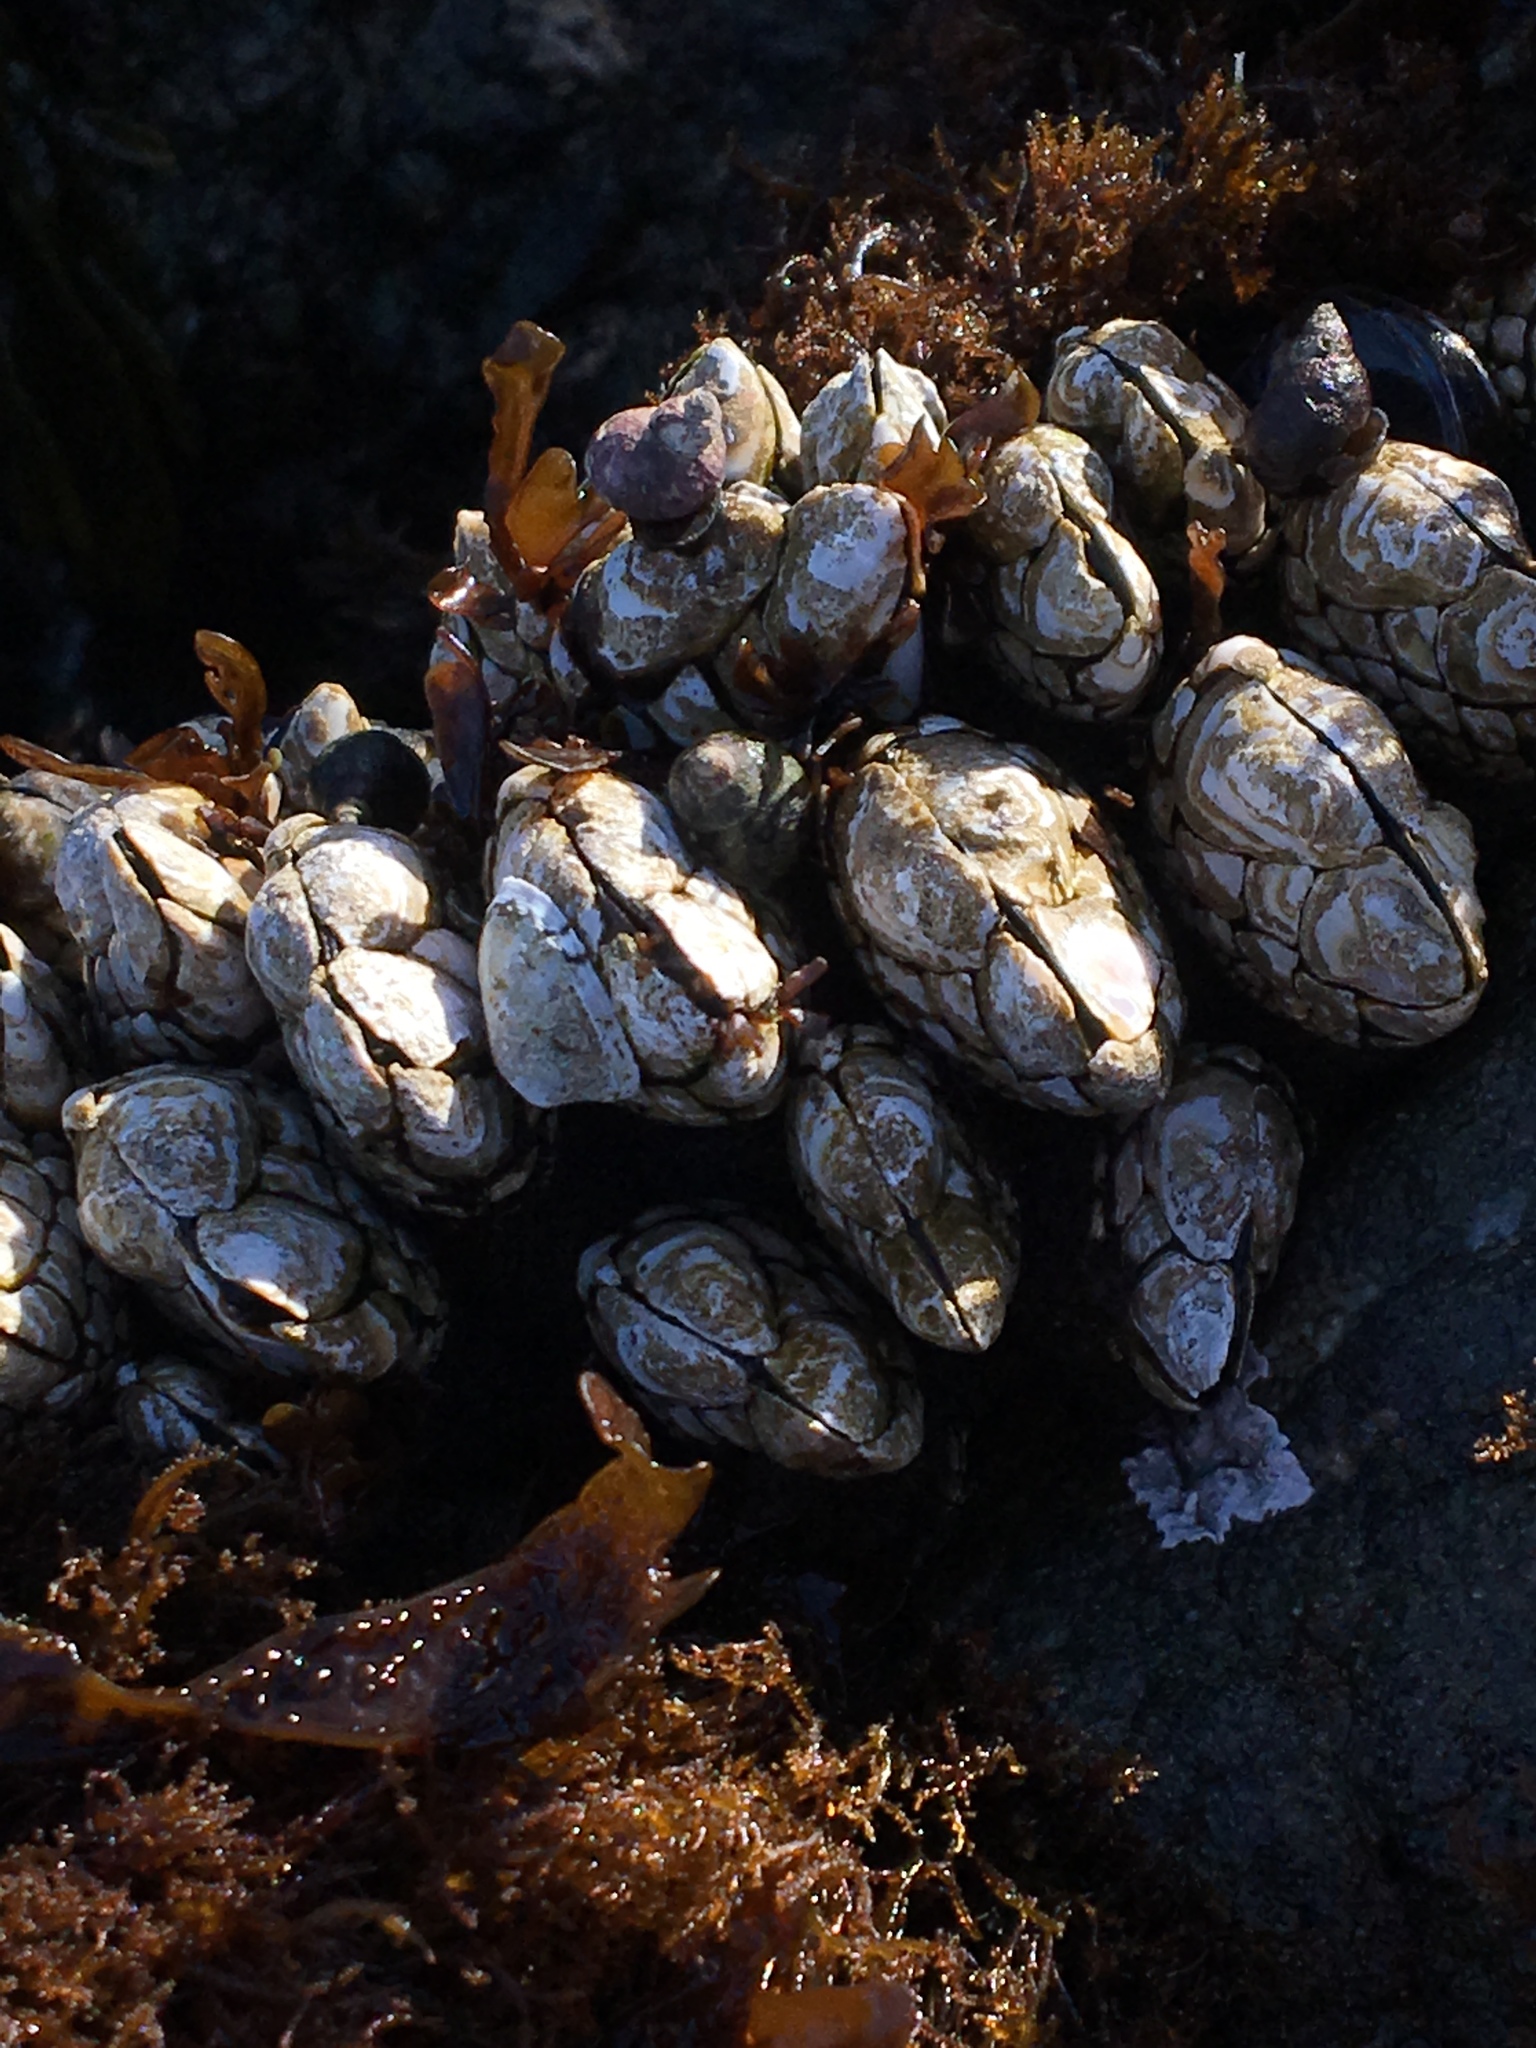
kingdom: Animalia
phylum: Arthropoda
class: Maxillopoda
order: Pedunculata
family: Pollicipedidae
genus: Pollicipes
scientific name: Pollicipes polymerus
